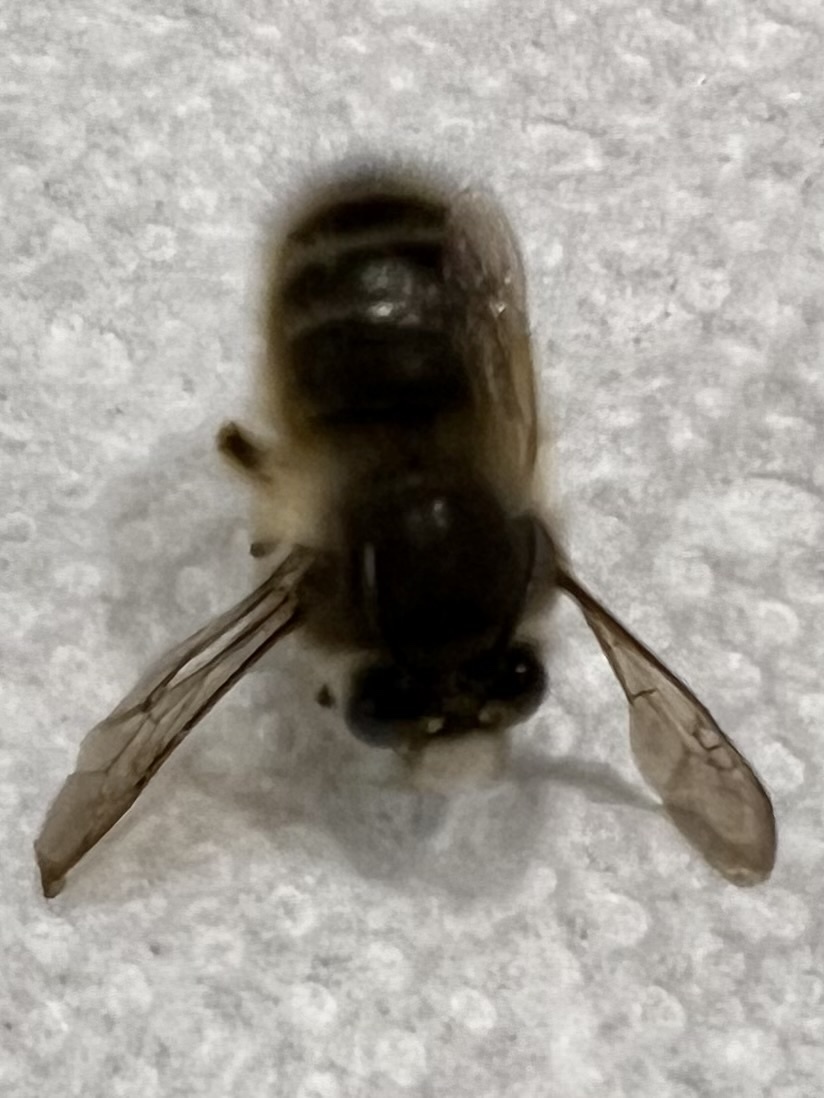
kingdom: Animalia
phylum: Arthropoda
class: Insecta
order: Hymenoptera
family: Apidae
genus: Anthophora
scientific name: Anthophora villosula
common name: Asian shaggy digger
